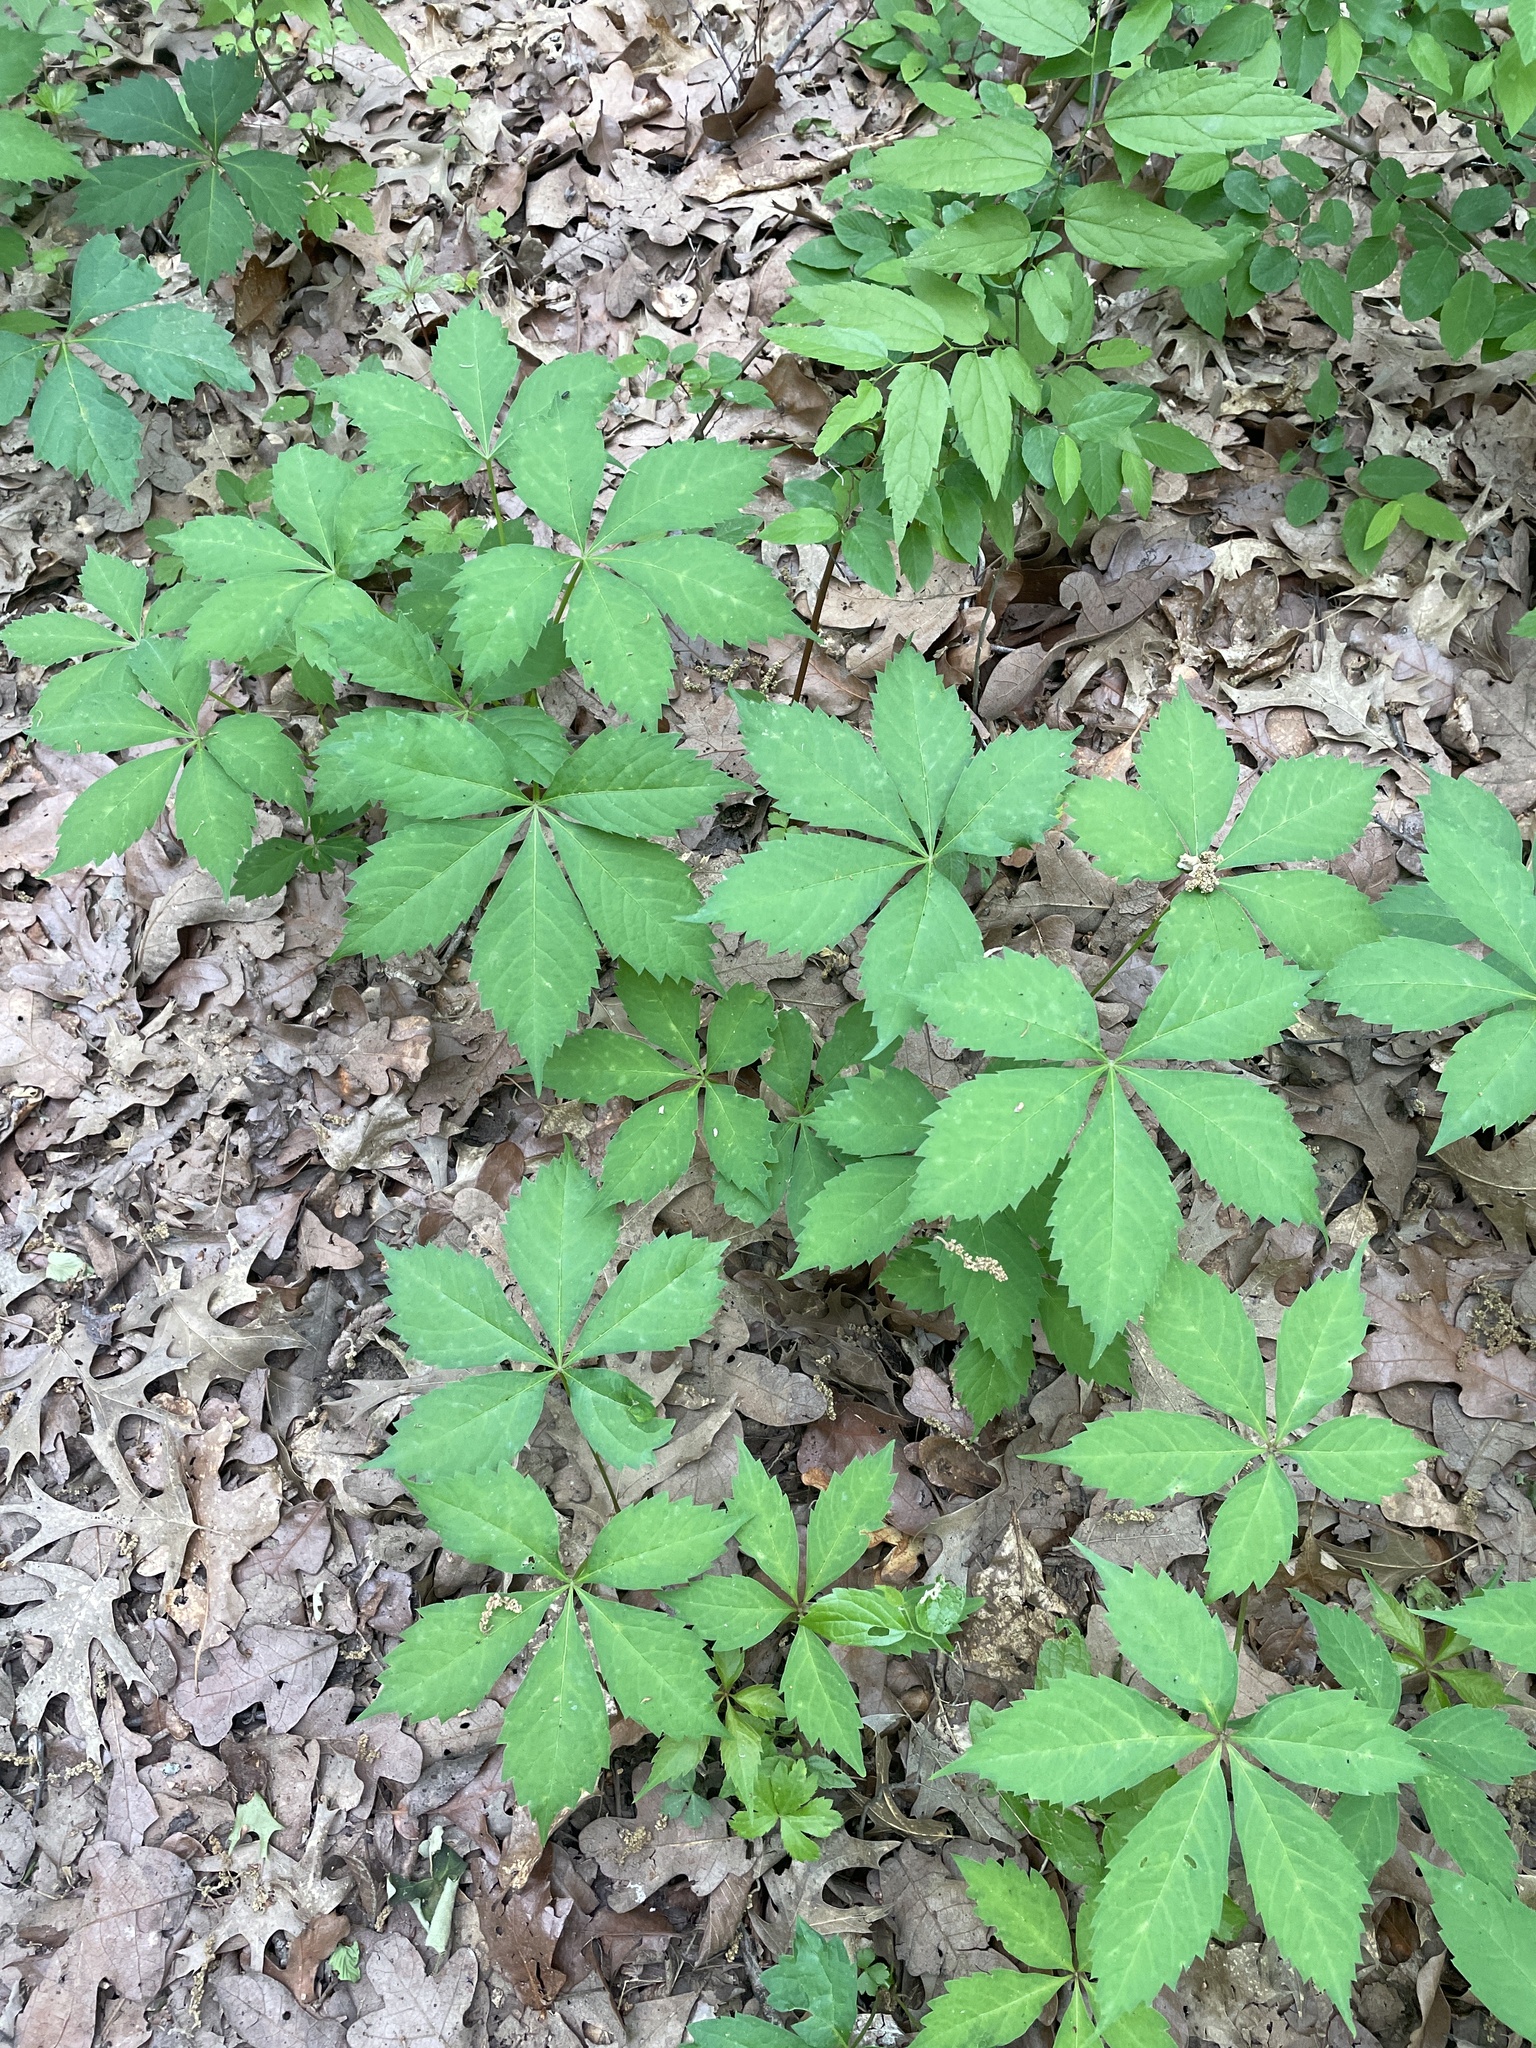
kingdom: Plantae
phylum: Tracheophyta
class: Magnoliopsida
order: Vitales
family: Vitaceae
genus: Parthenocissus
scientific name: Parthenocissus quinquefolia
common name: Virginia-creeper
